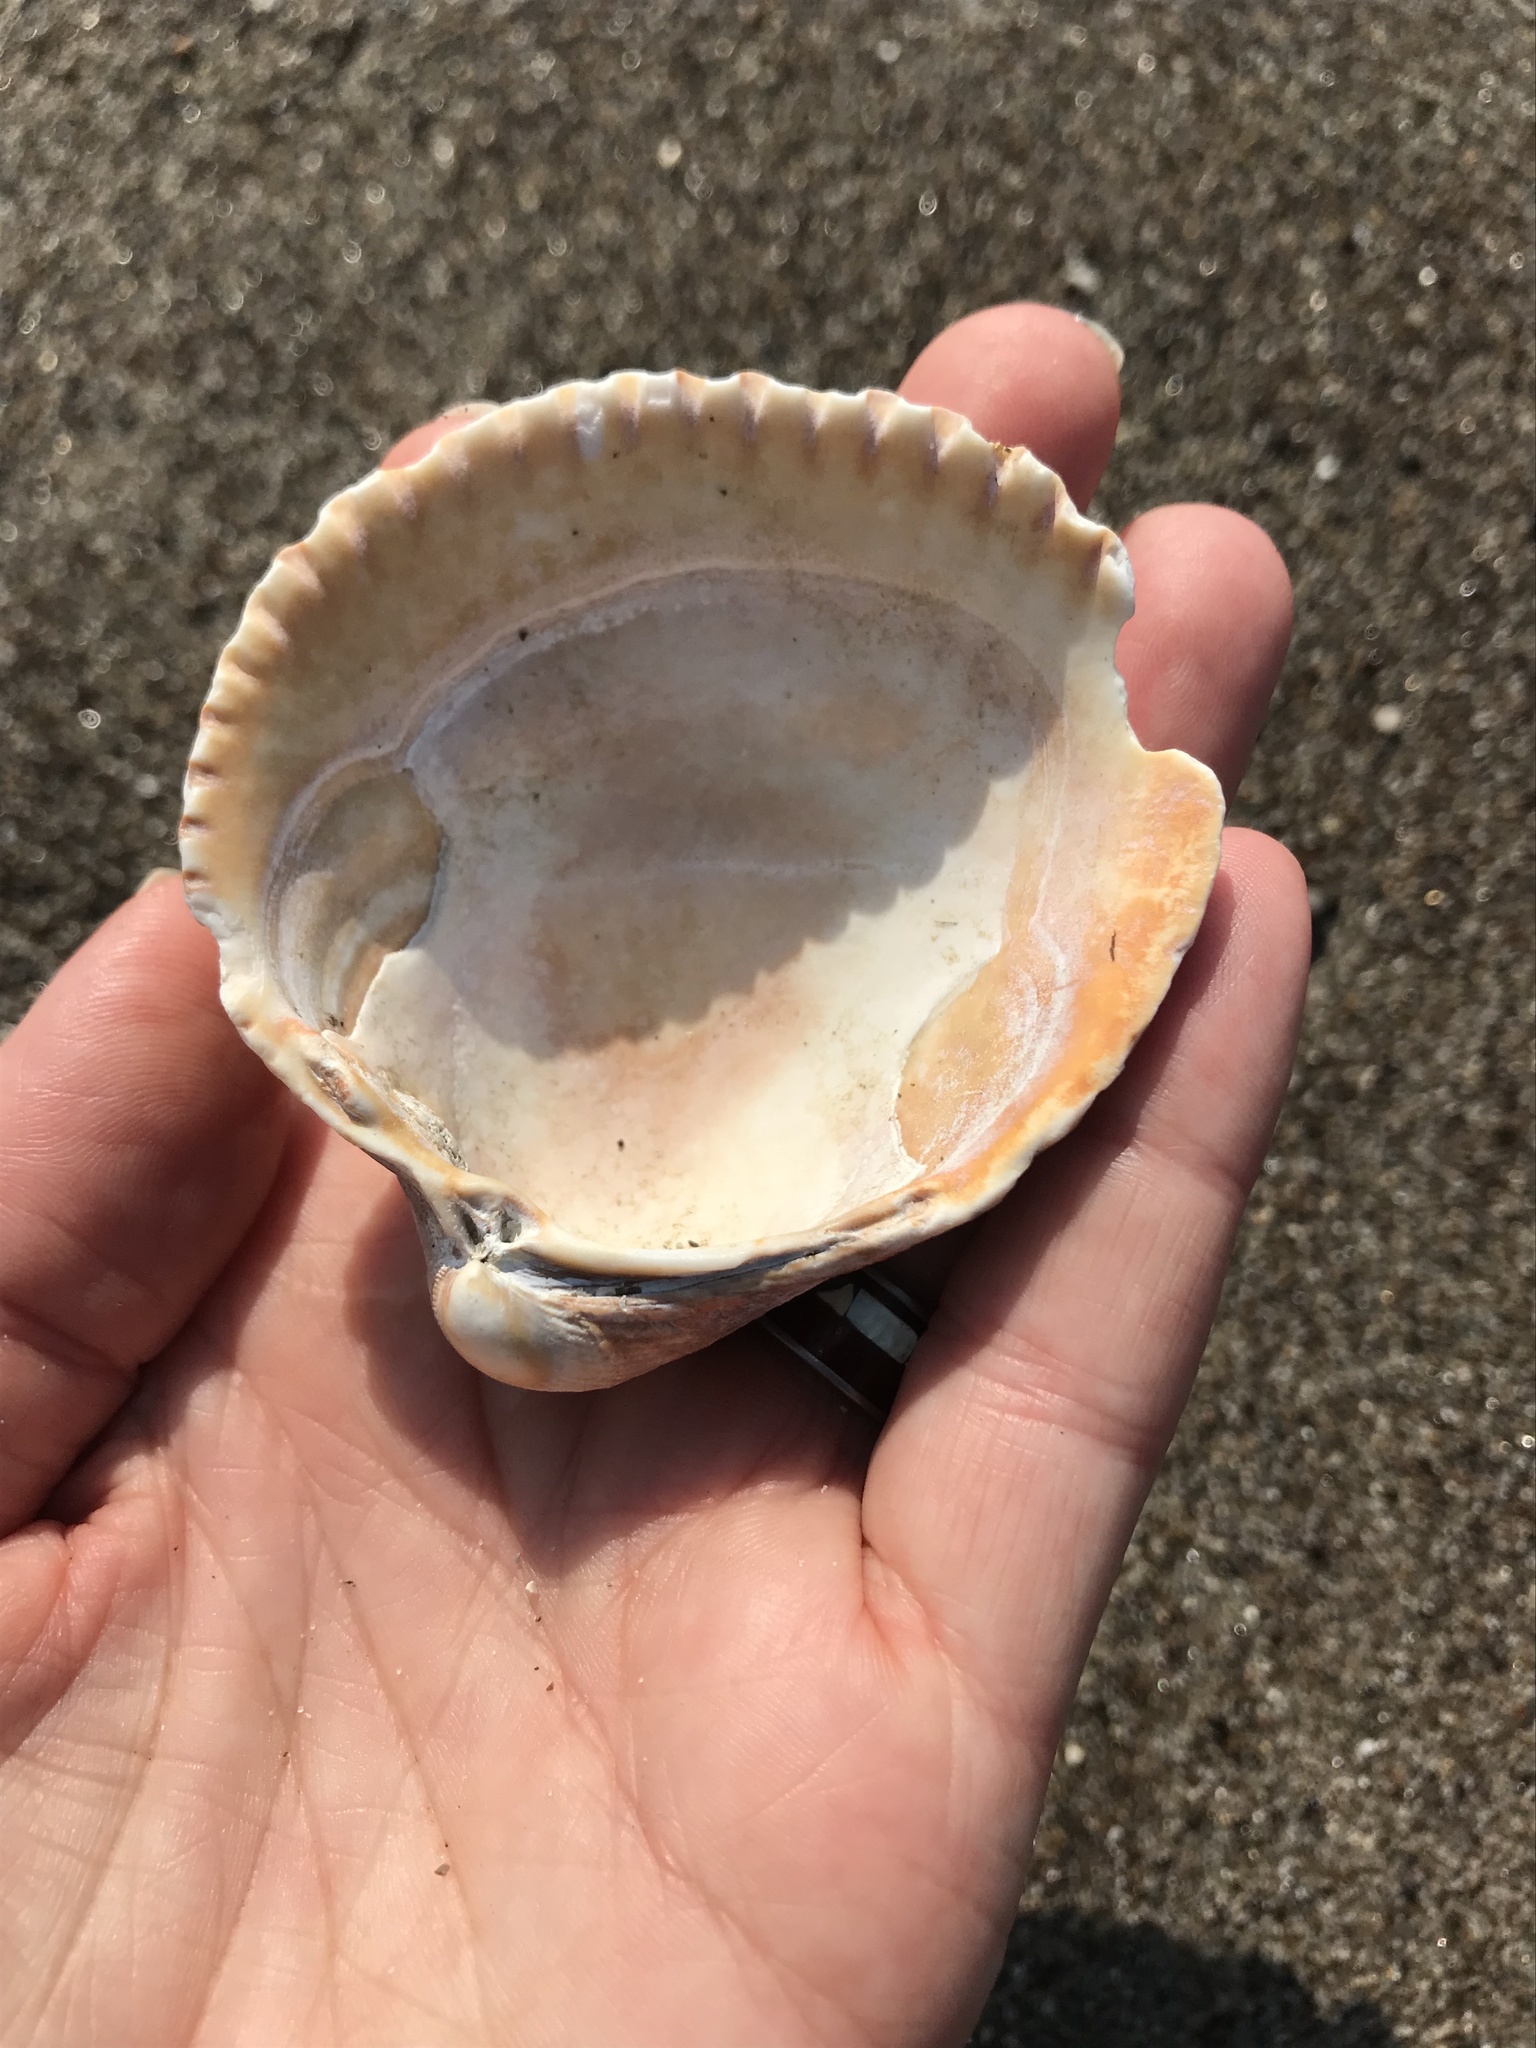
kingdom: Animalia
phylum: Mollusca
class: Bivalvia
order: Cardiida
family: Cardiidae
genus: Clinocardium
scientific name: Clinocardium nuttallii
